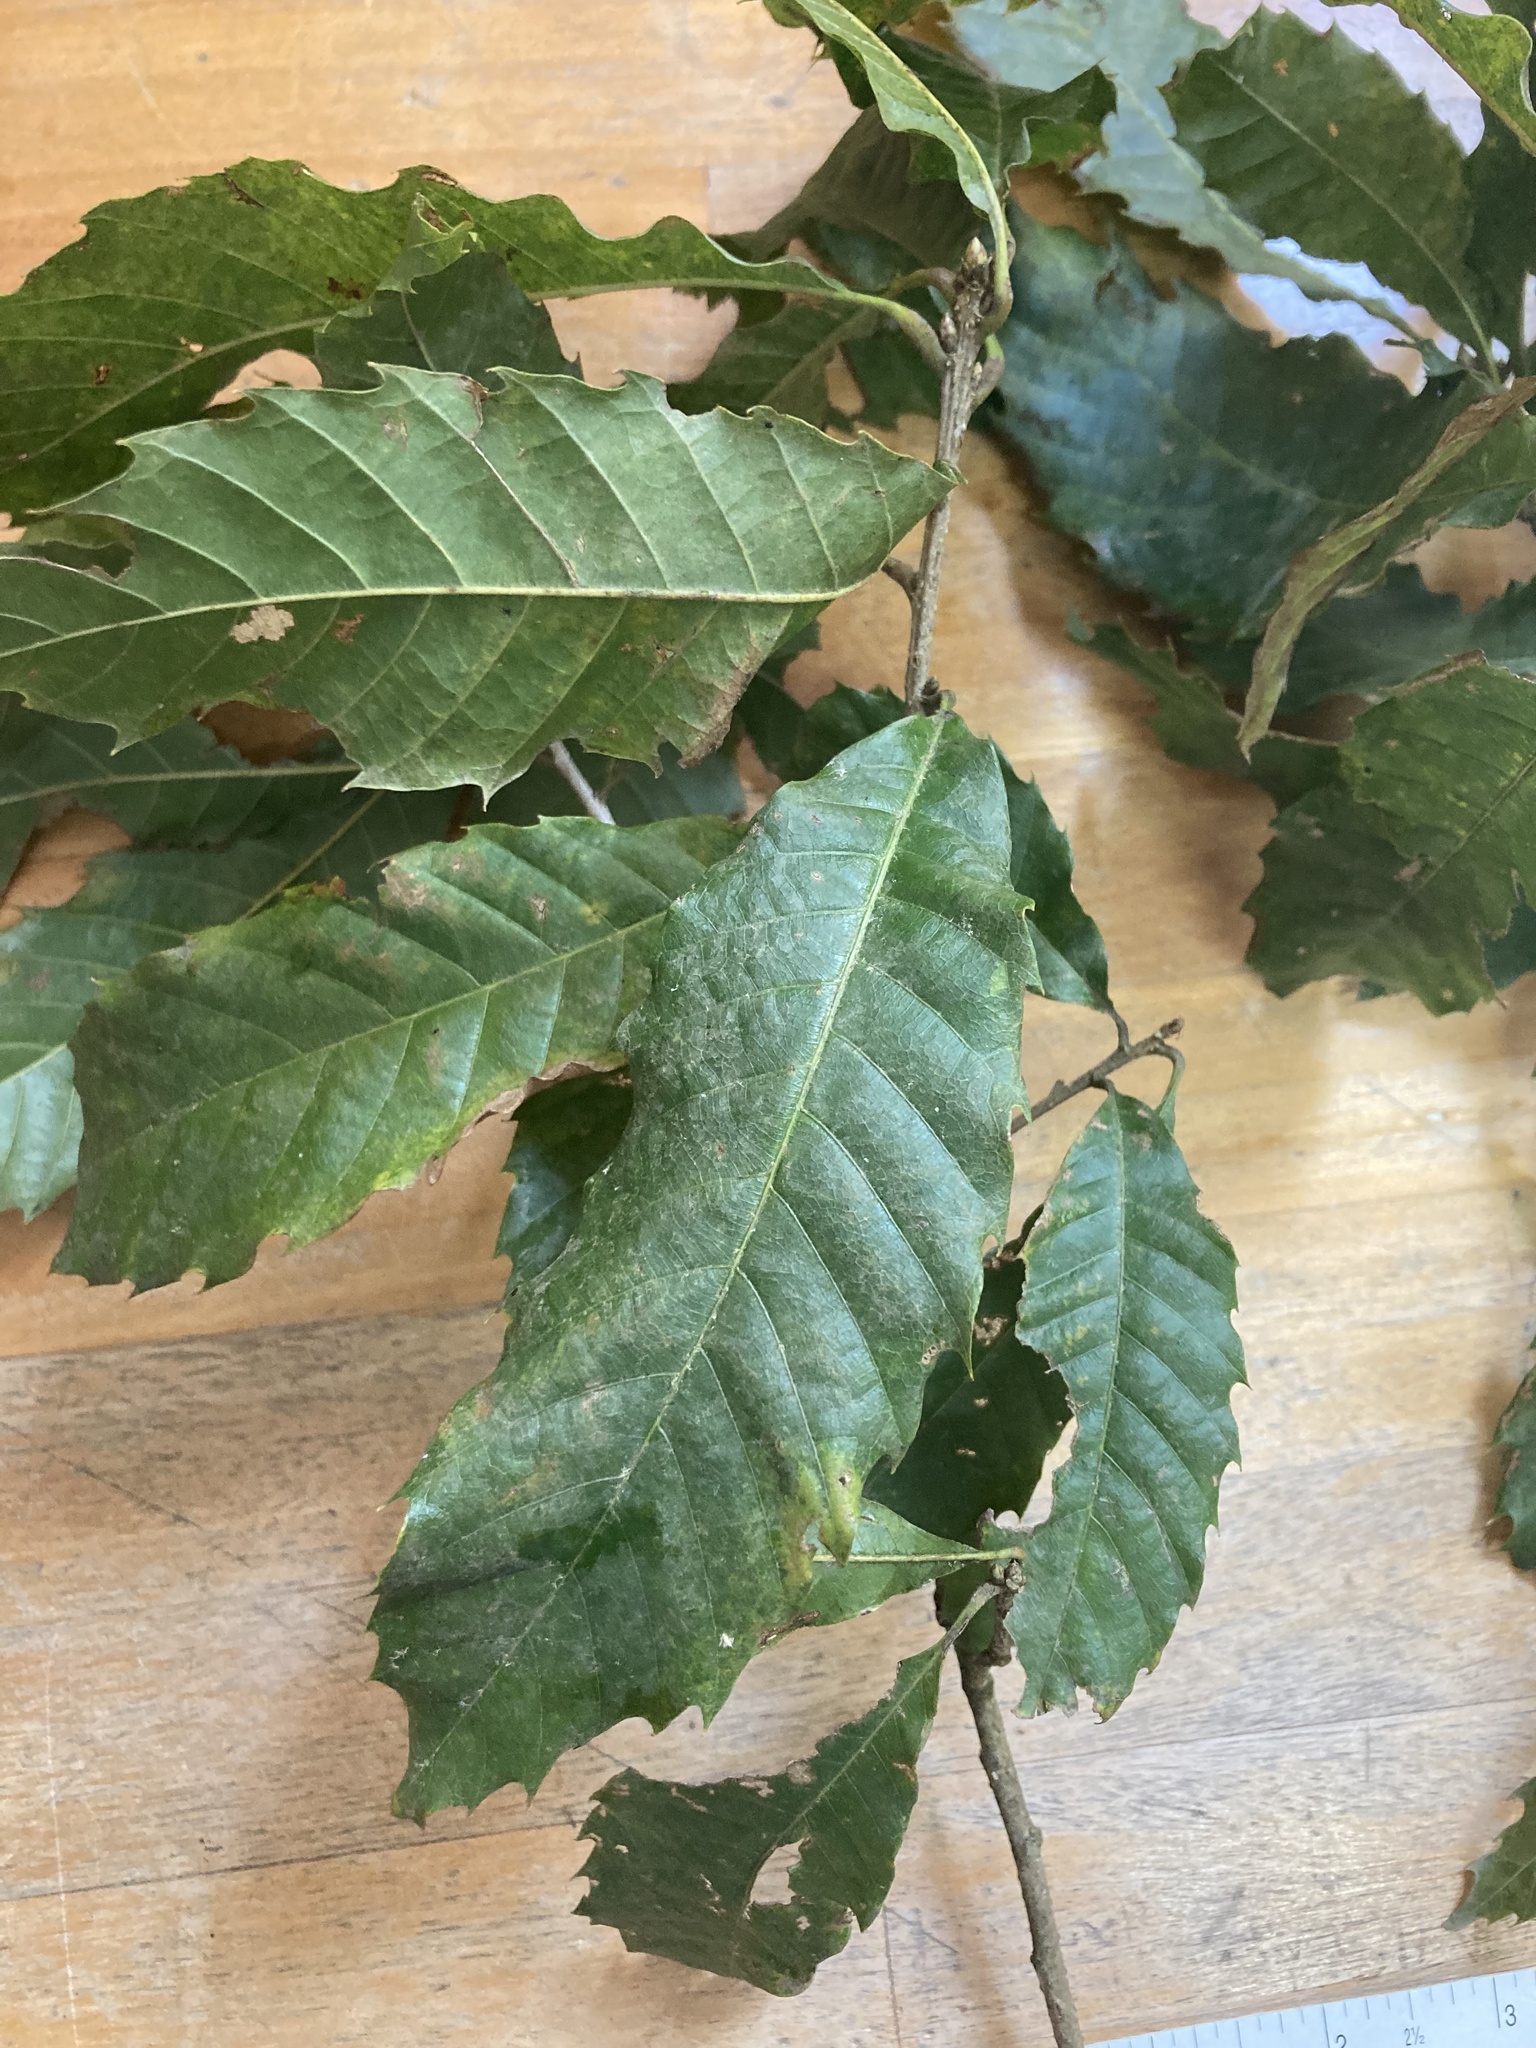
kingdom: Plantae
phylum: Tracheophyta
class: Magnoliopsida
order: Fagales
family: Fagaceae
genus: Quercus
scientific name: Quercus corrugata
